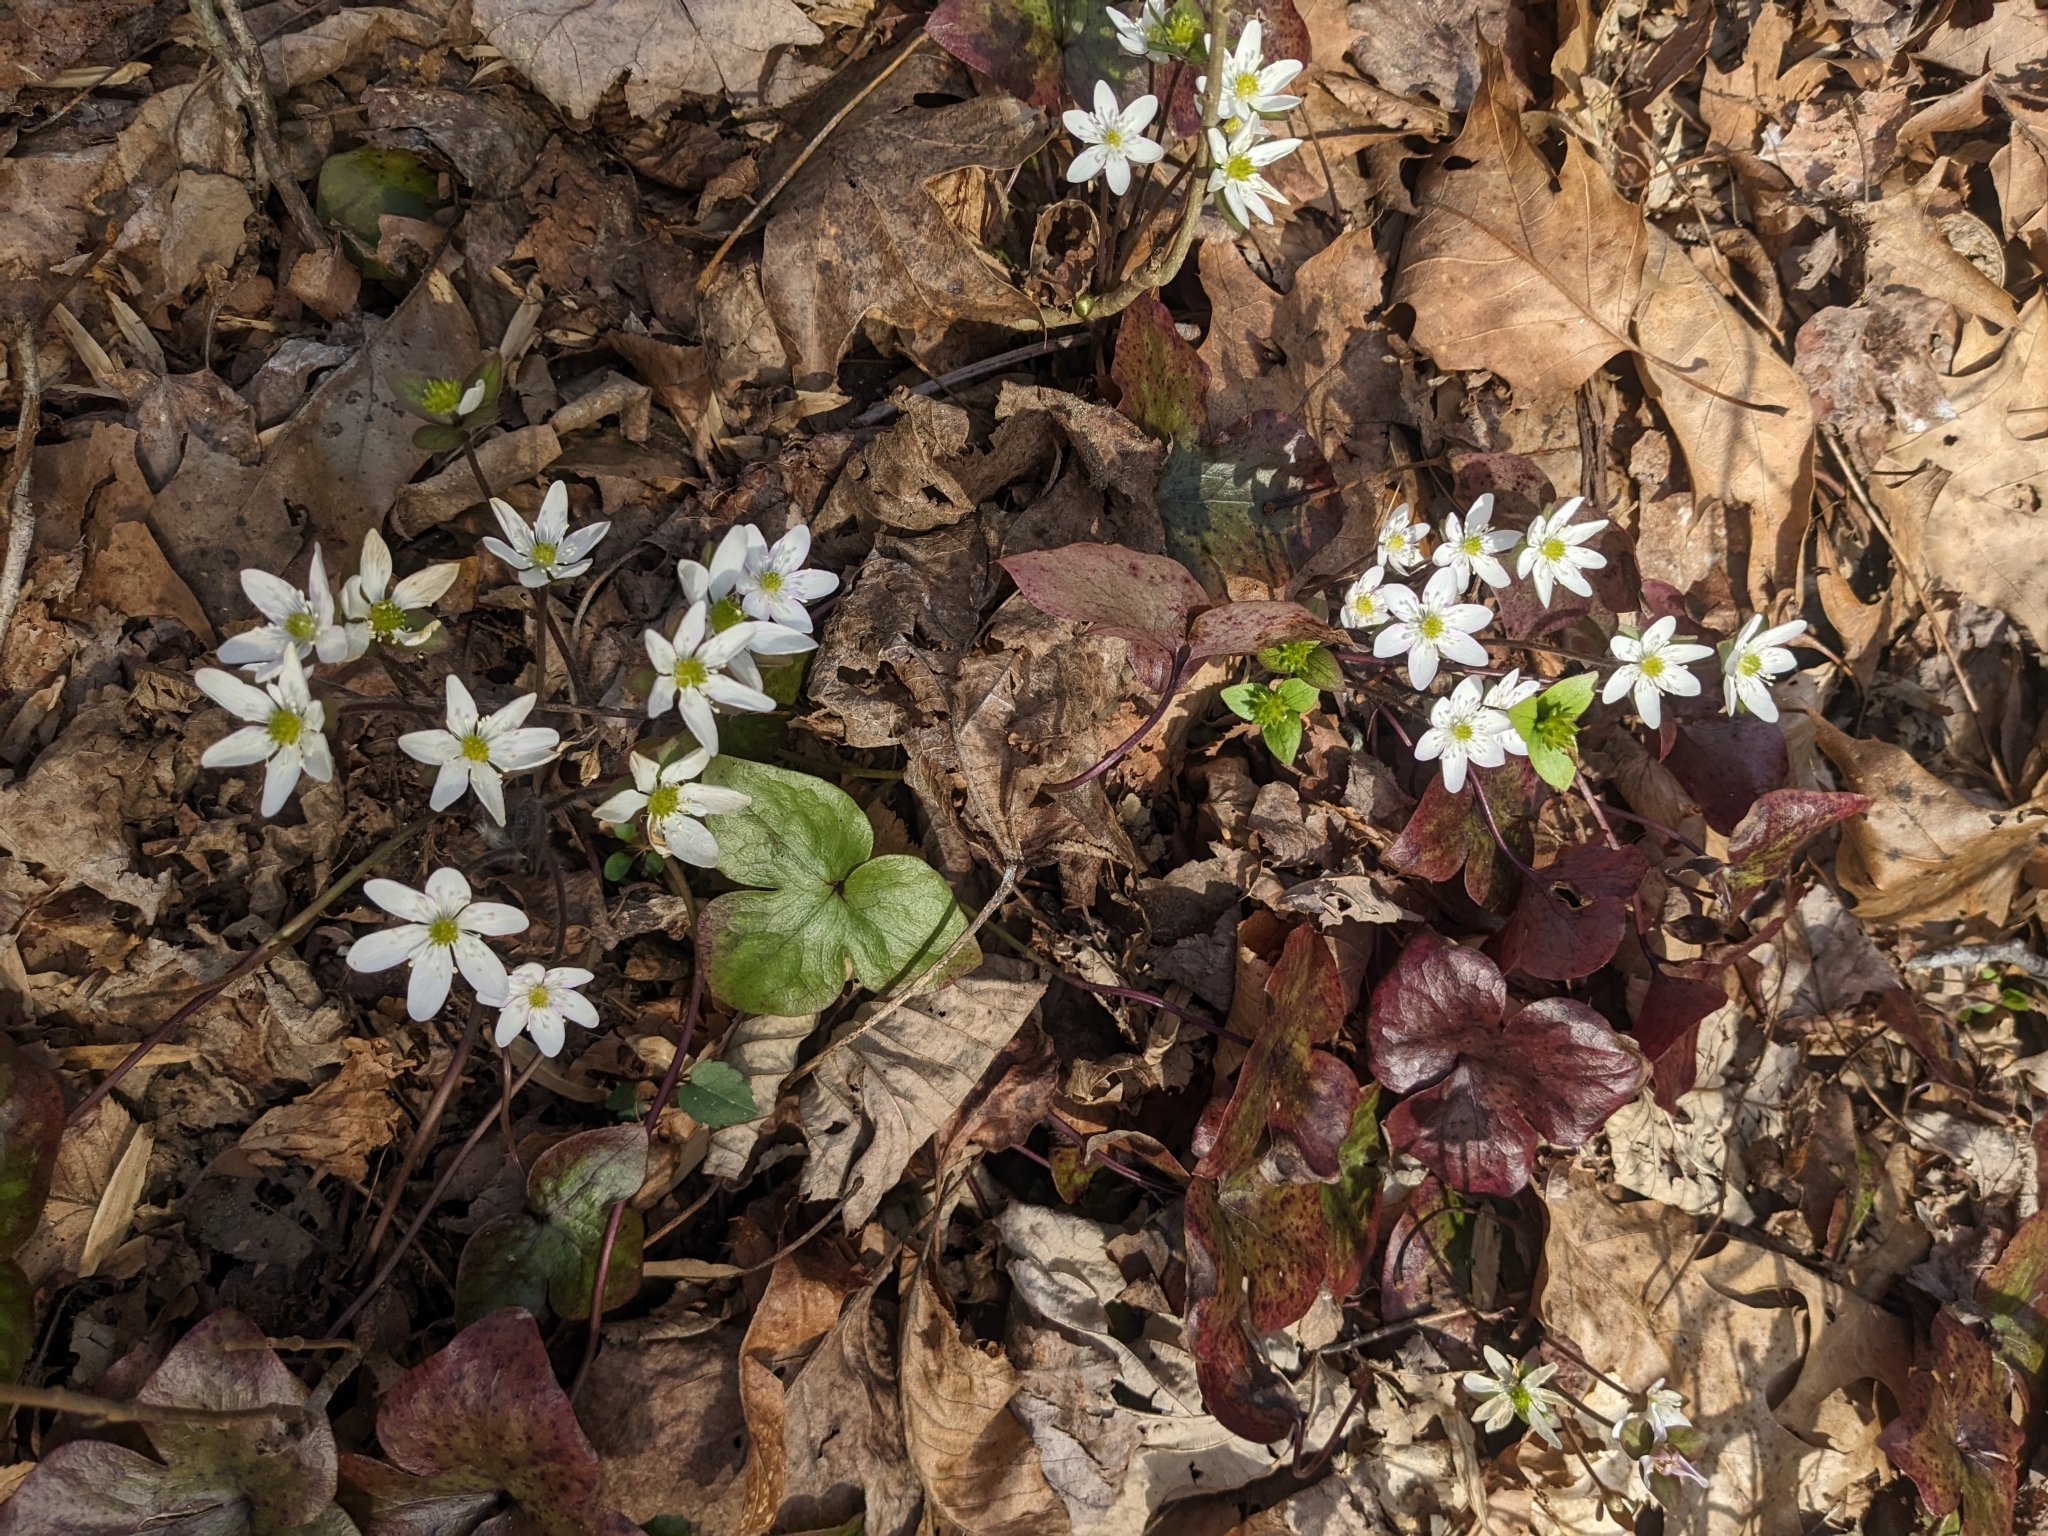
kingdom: Plantae
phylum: Tracheophyta
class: Magnoliopsida
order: Ranunculales
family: Ranunculaceae
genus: Hepatica
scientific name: Hepatica acutiloba
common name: Sharp-lobed hepatica
